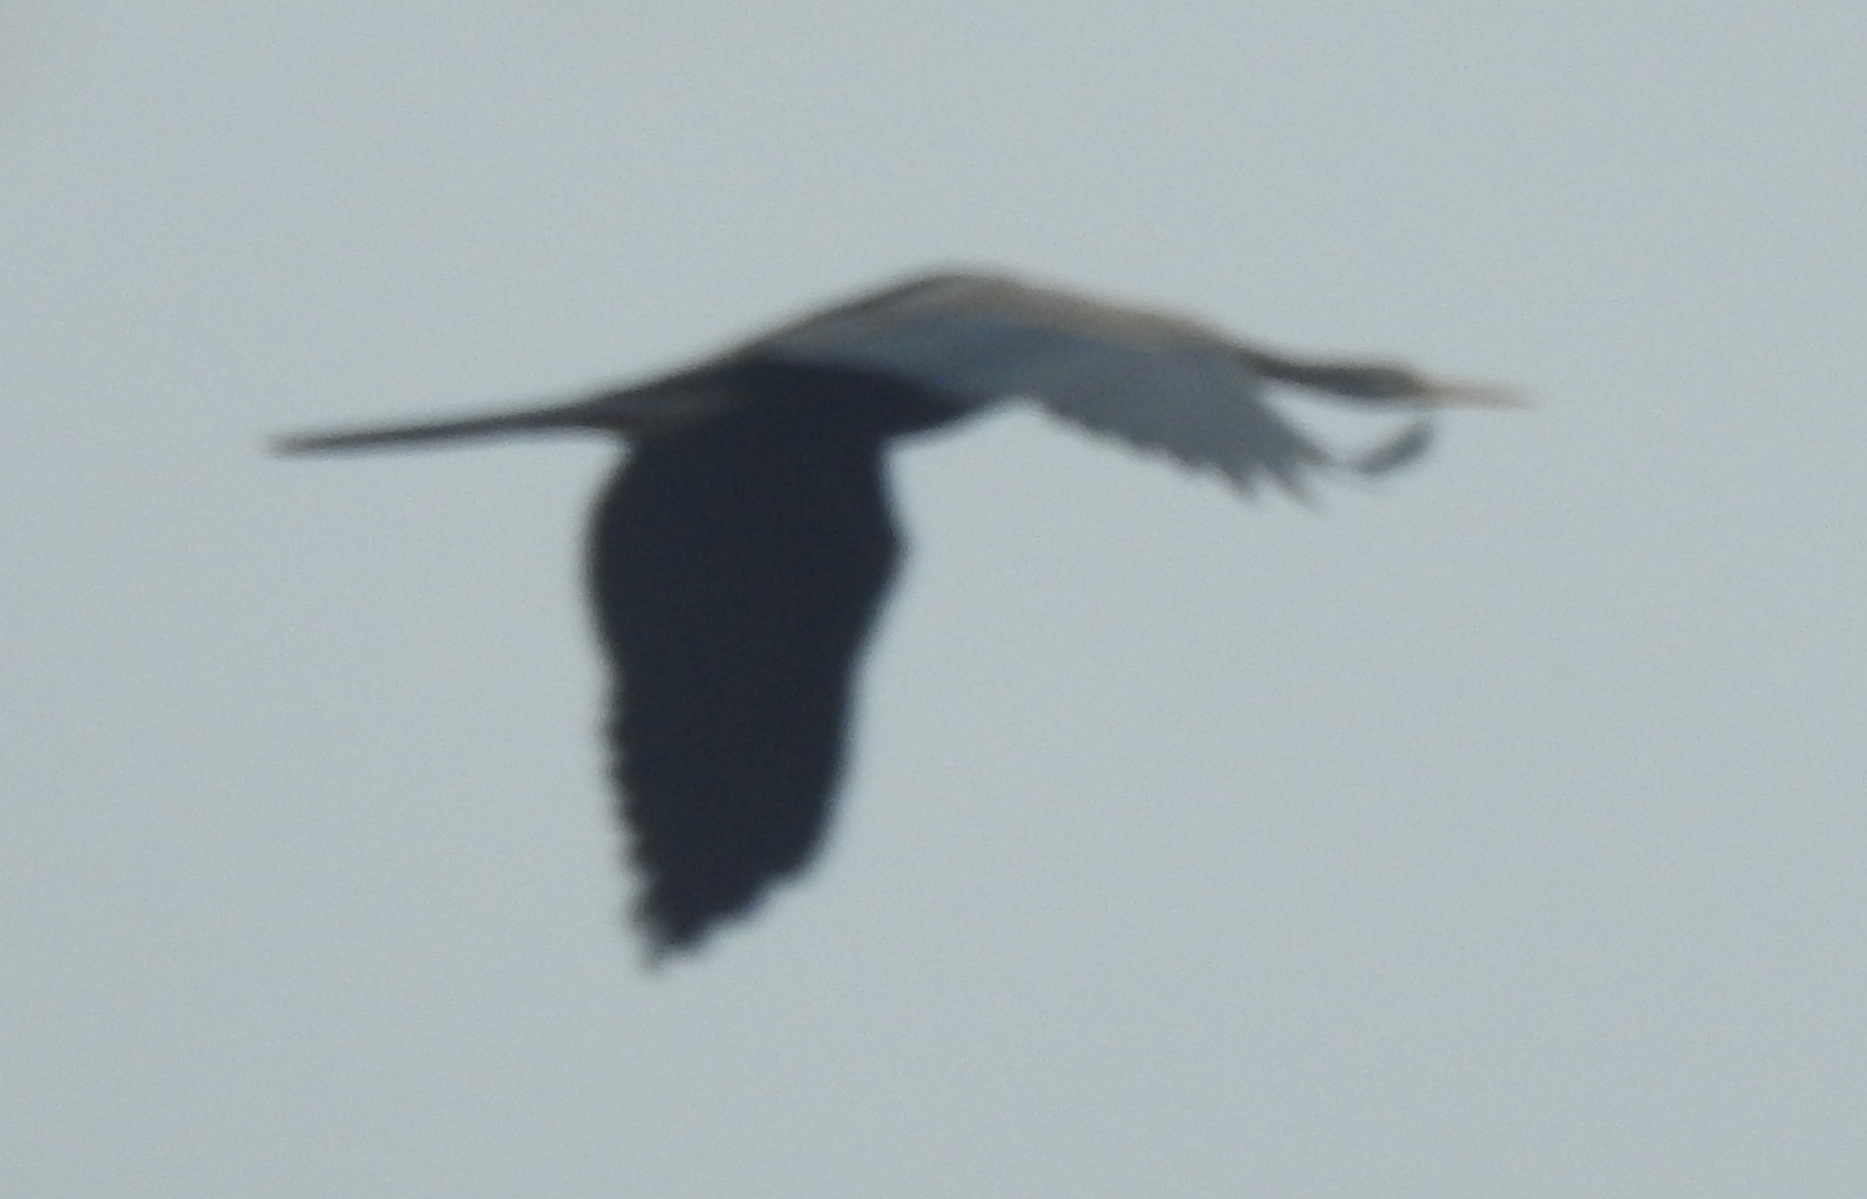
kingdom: Animalia
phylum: Chordata
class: Aves
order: Suliformes
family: Anhingidae
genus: Anhinga
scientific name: Anhinga melanogaster
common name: Oriental darter
